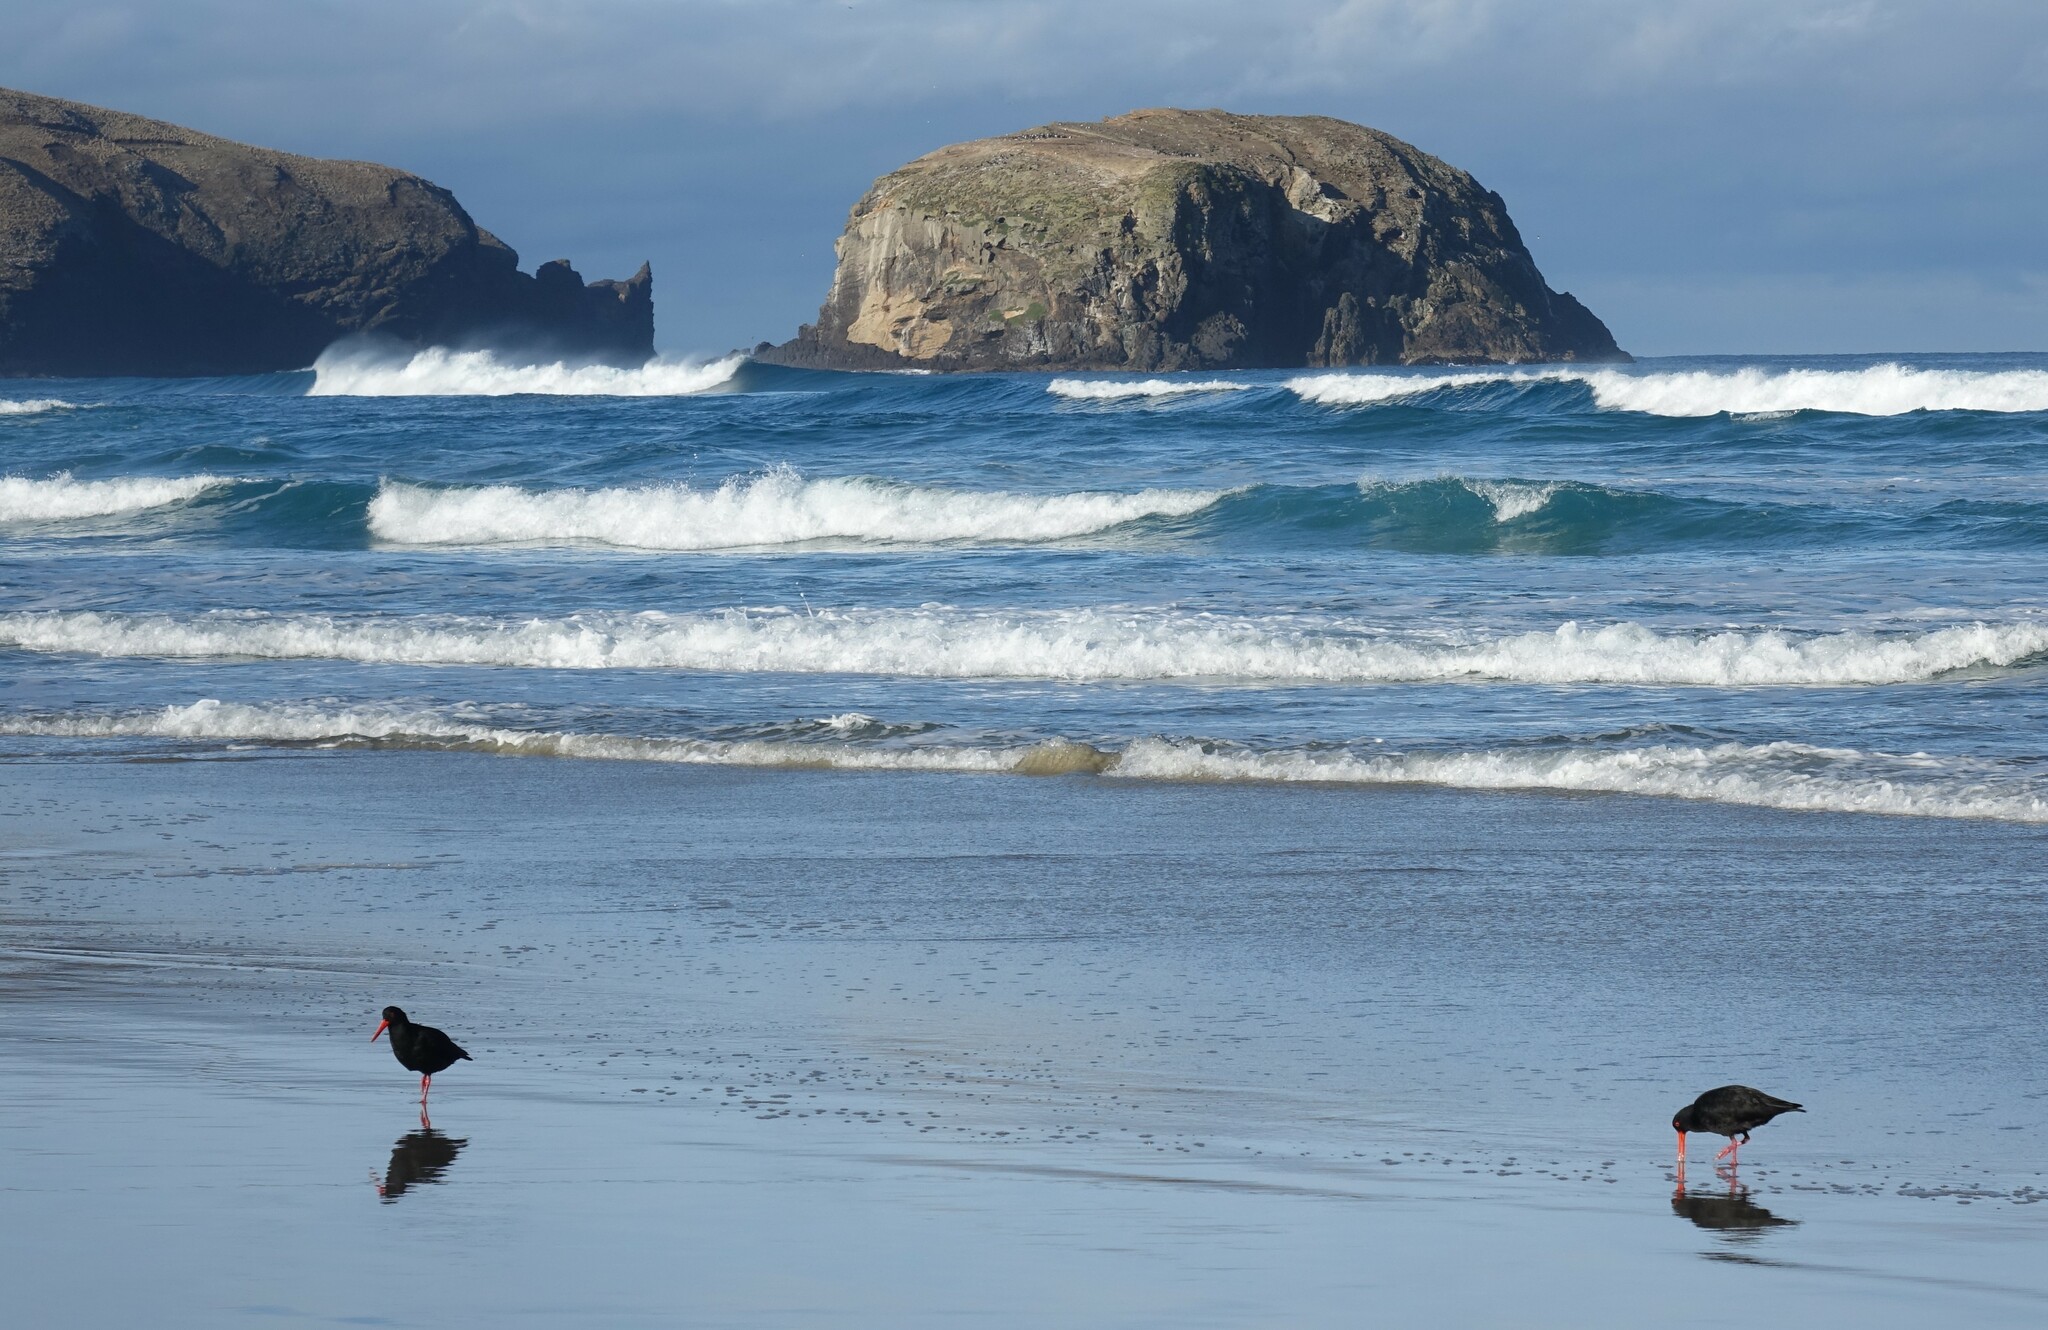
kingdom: Animalia
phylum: Chordata
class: Aves
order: Charadriiformes
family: Haematopodidae
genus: Haematopus
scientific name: Haematopus unicolor
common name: Variable oystercatcher
